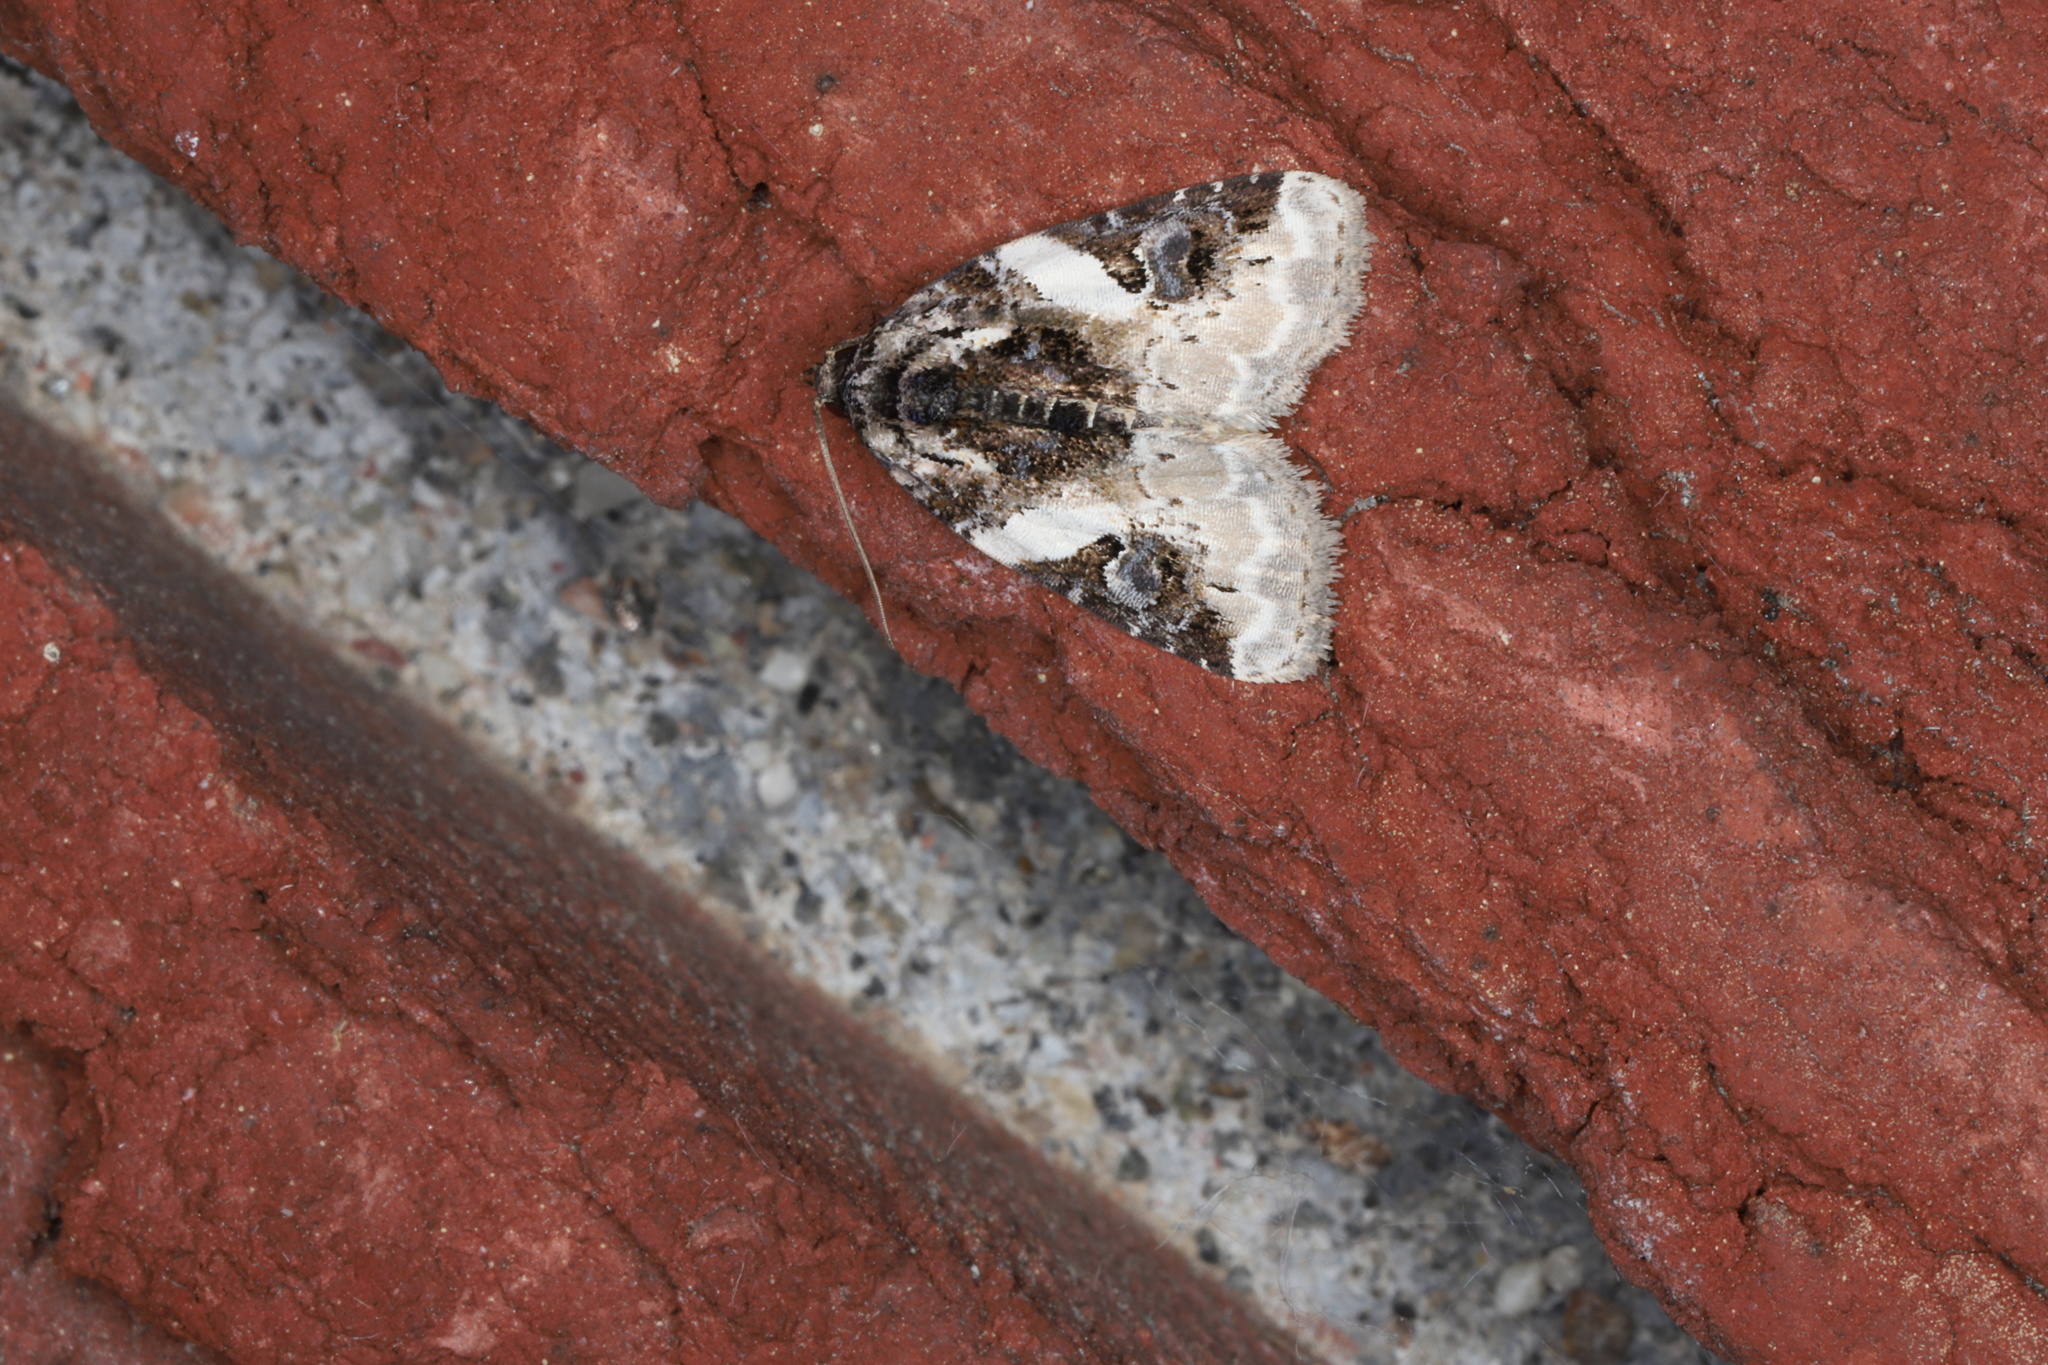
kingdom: Animalia
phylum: Arthropoda
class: Insecta
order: Lepidoptera
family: Noctuidae
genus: Pseudeustrotia
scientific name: Pseudeustrotia carneola
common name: Pink-barred lithacodia moth
